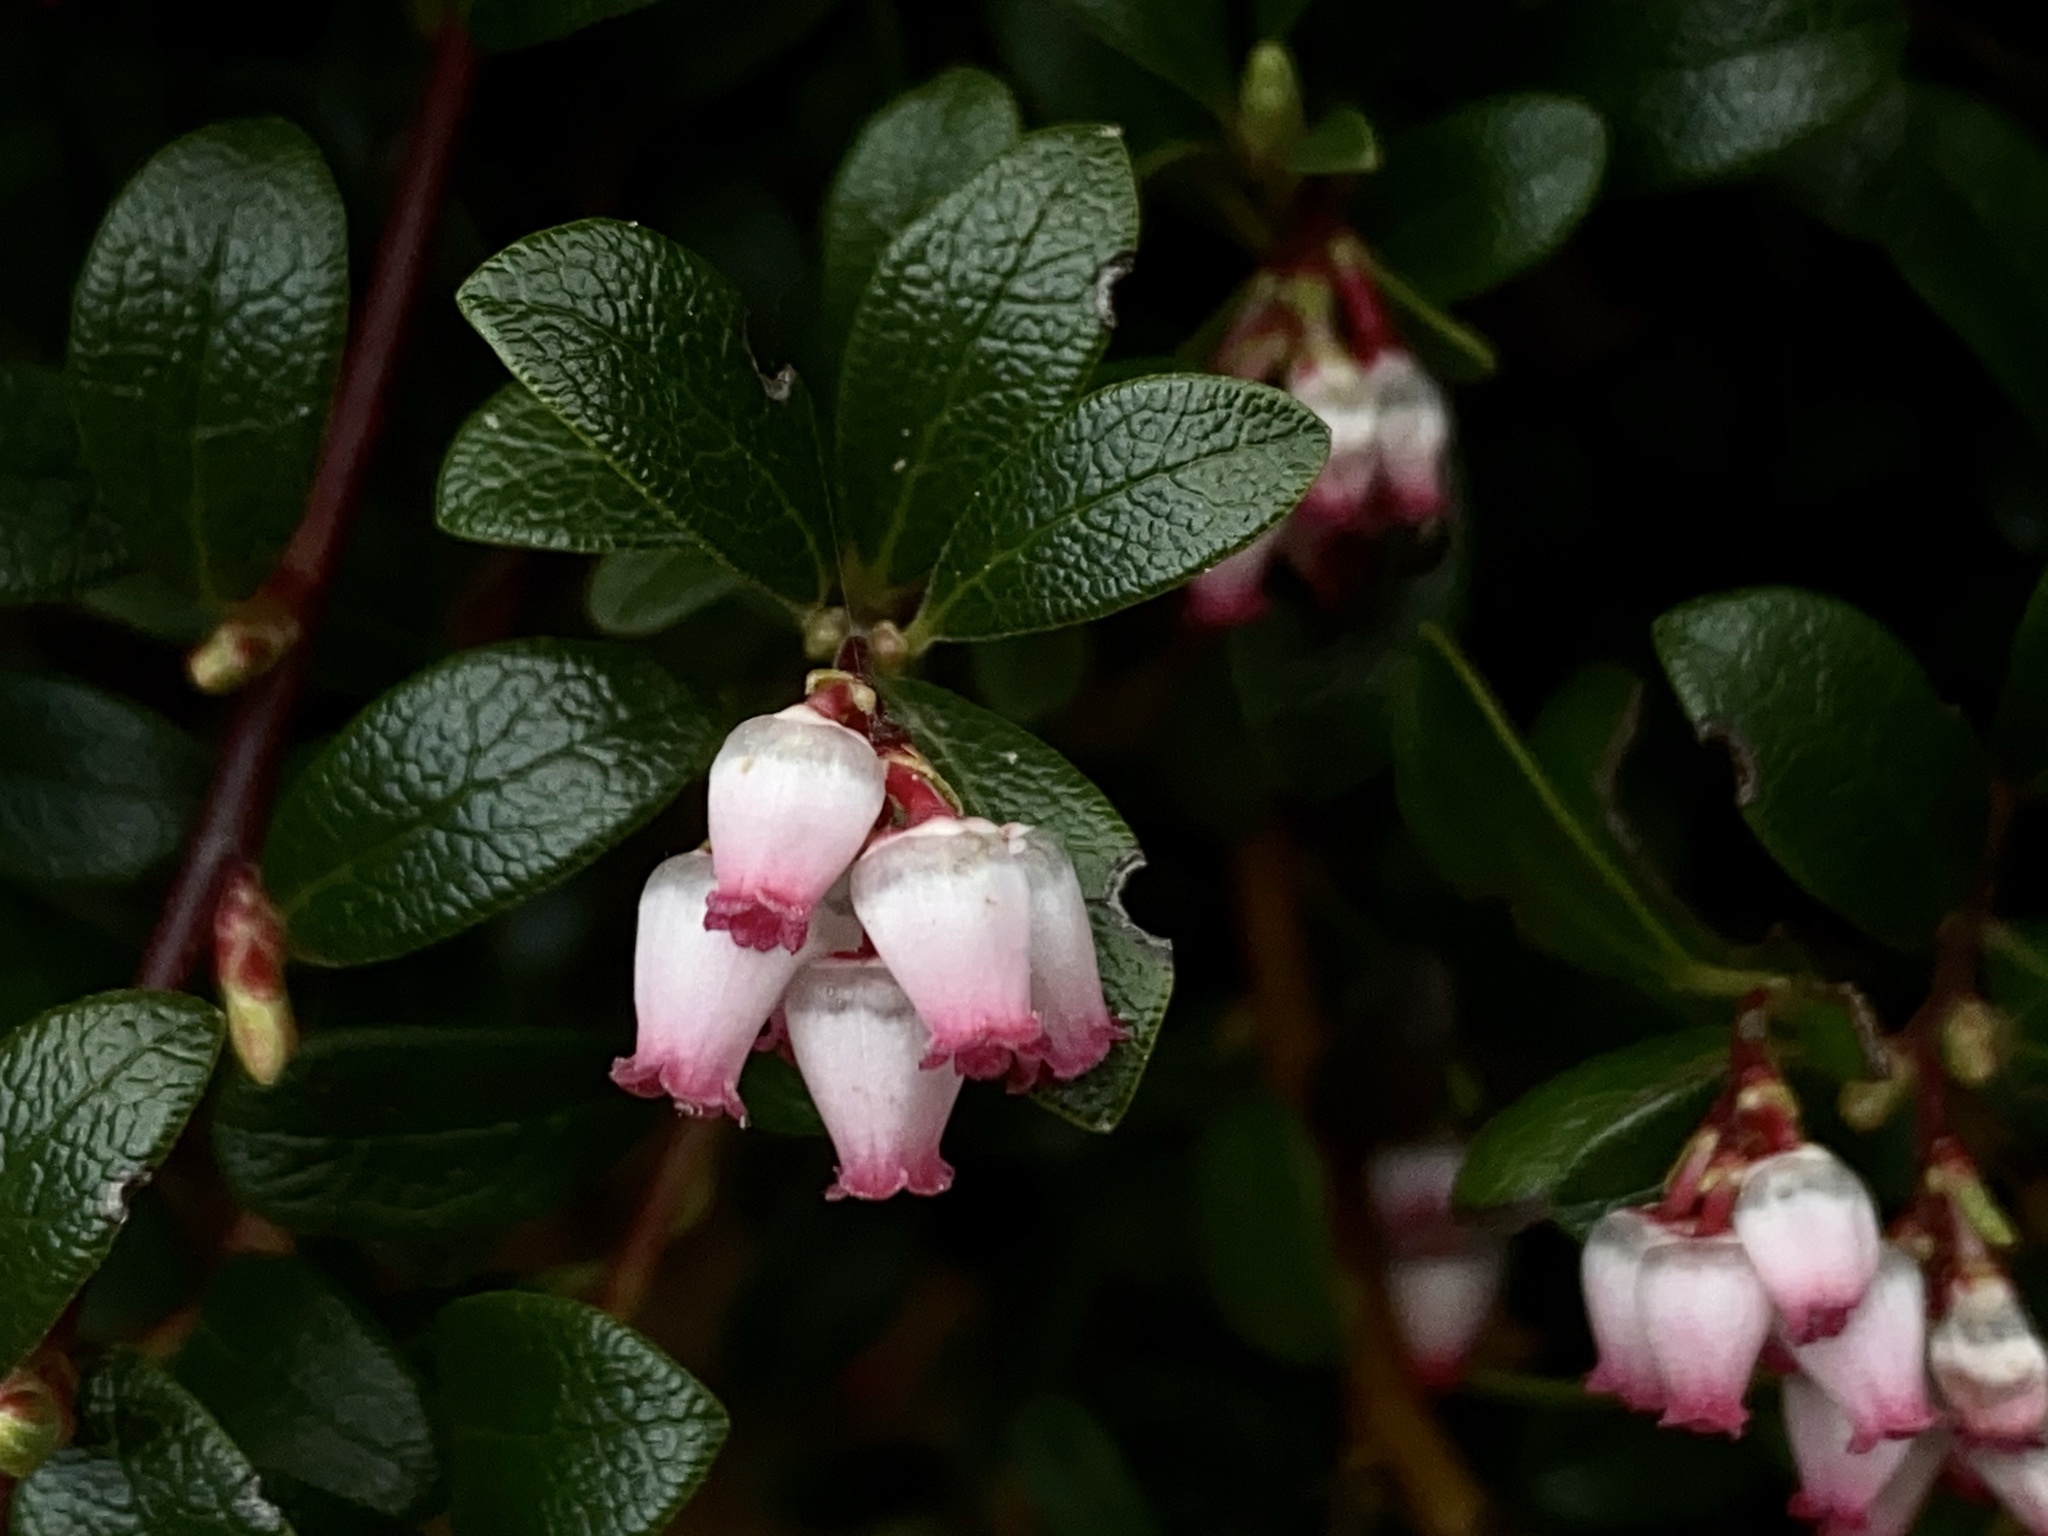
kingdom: Plantae
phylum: Tracheophyta
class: Magnoliopsida
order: Ericales
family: Ericaceae
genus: Arctostaphylos
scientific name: Arctostaphylos uva-ursi
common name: Bearberry
